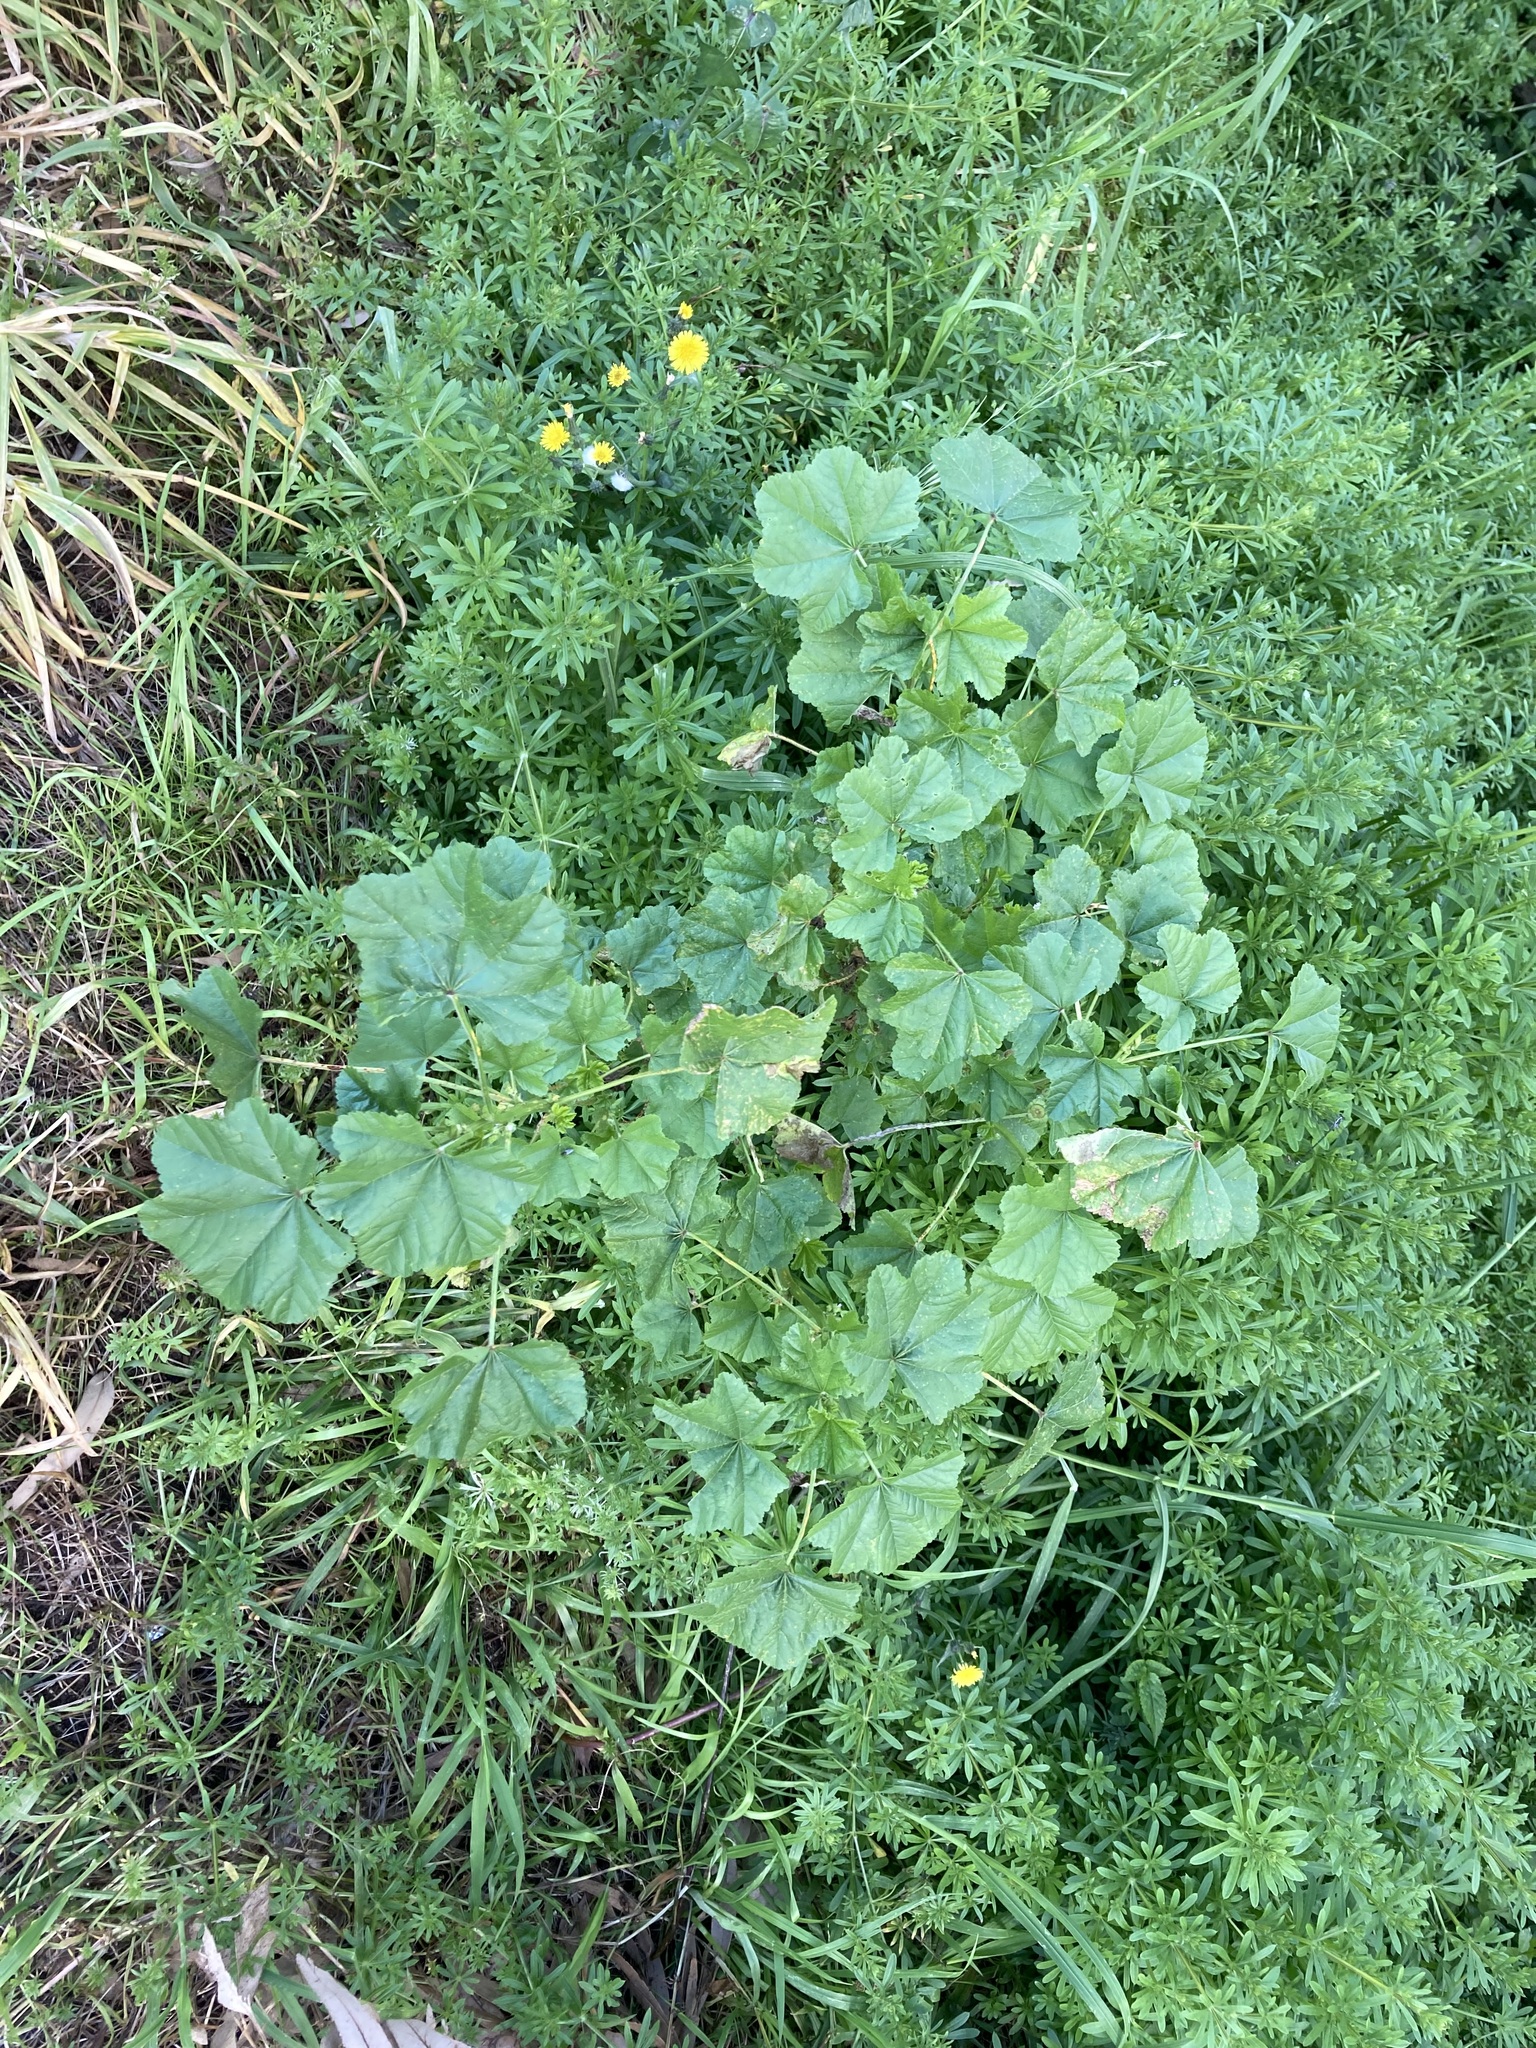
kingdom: Plantae
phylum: Tracheophyta
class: Magnoliopsida
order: Malvales
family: Malvaceae
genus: Malva
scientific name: Malva parviflora
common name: Least mallow
